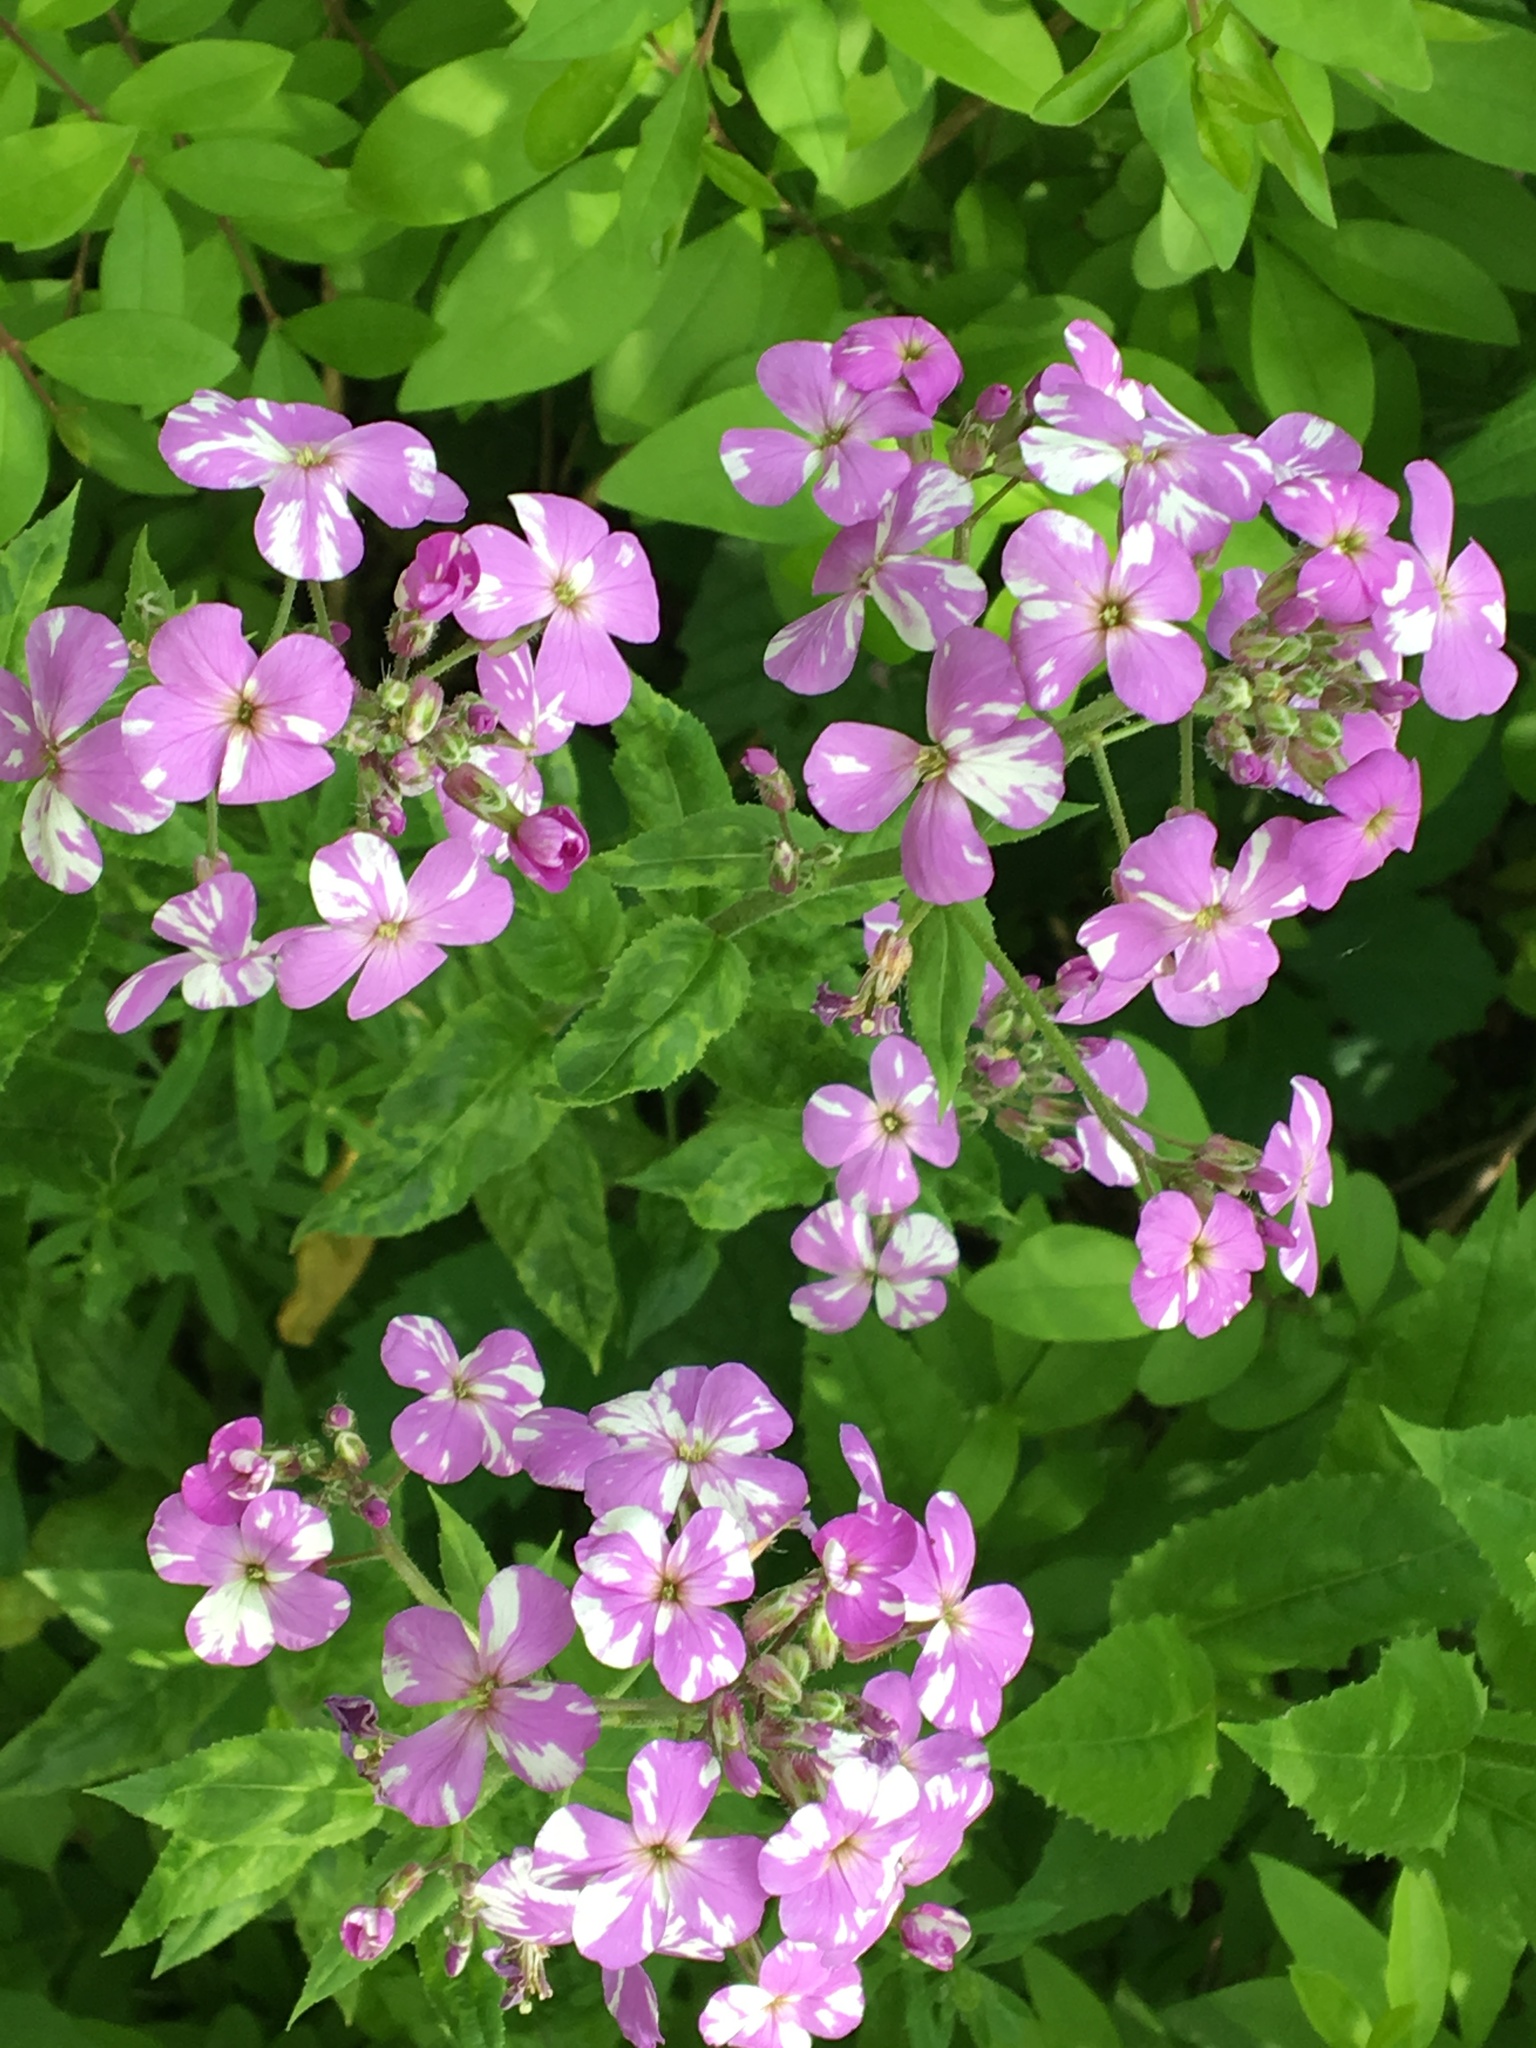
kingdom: Plantae
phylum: Tracheophyta
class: Magnoliopsida
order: Brassicales
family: Brassicaceae
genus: Hesperis
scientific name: Hesperis matronalis
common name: Dame's-violet
